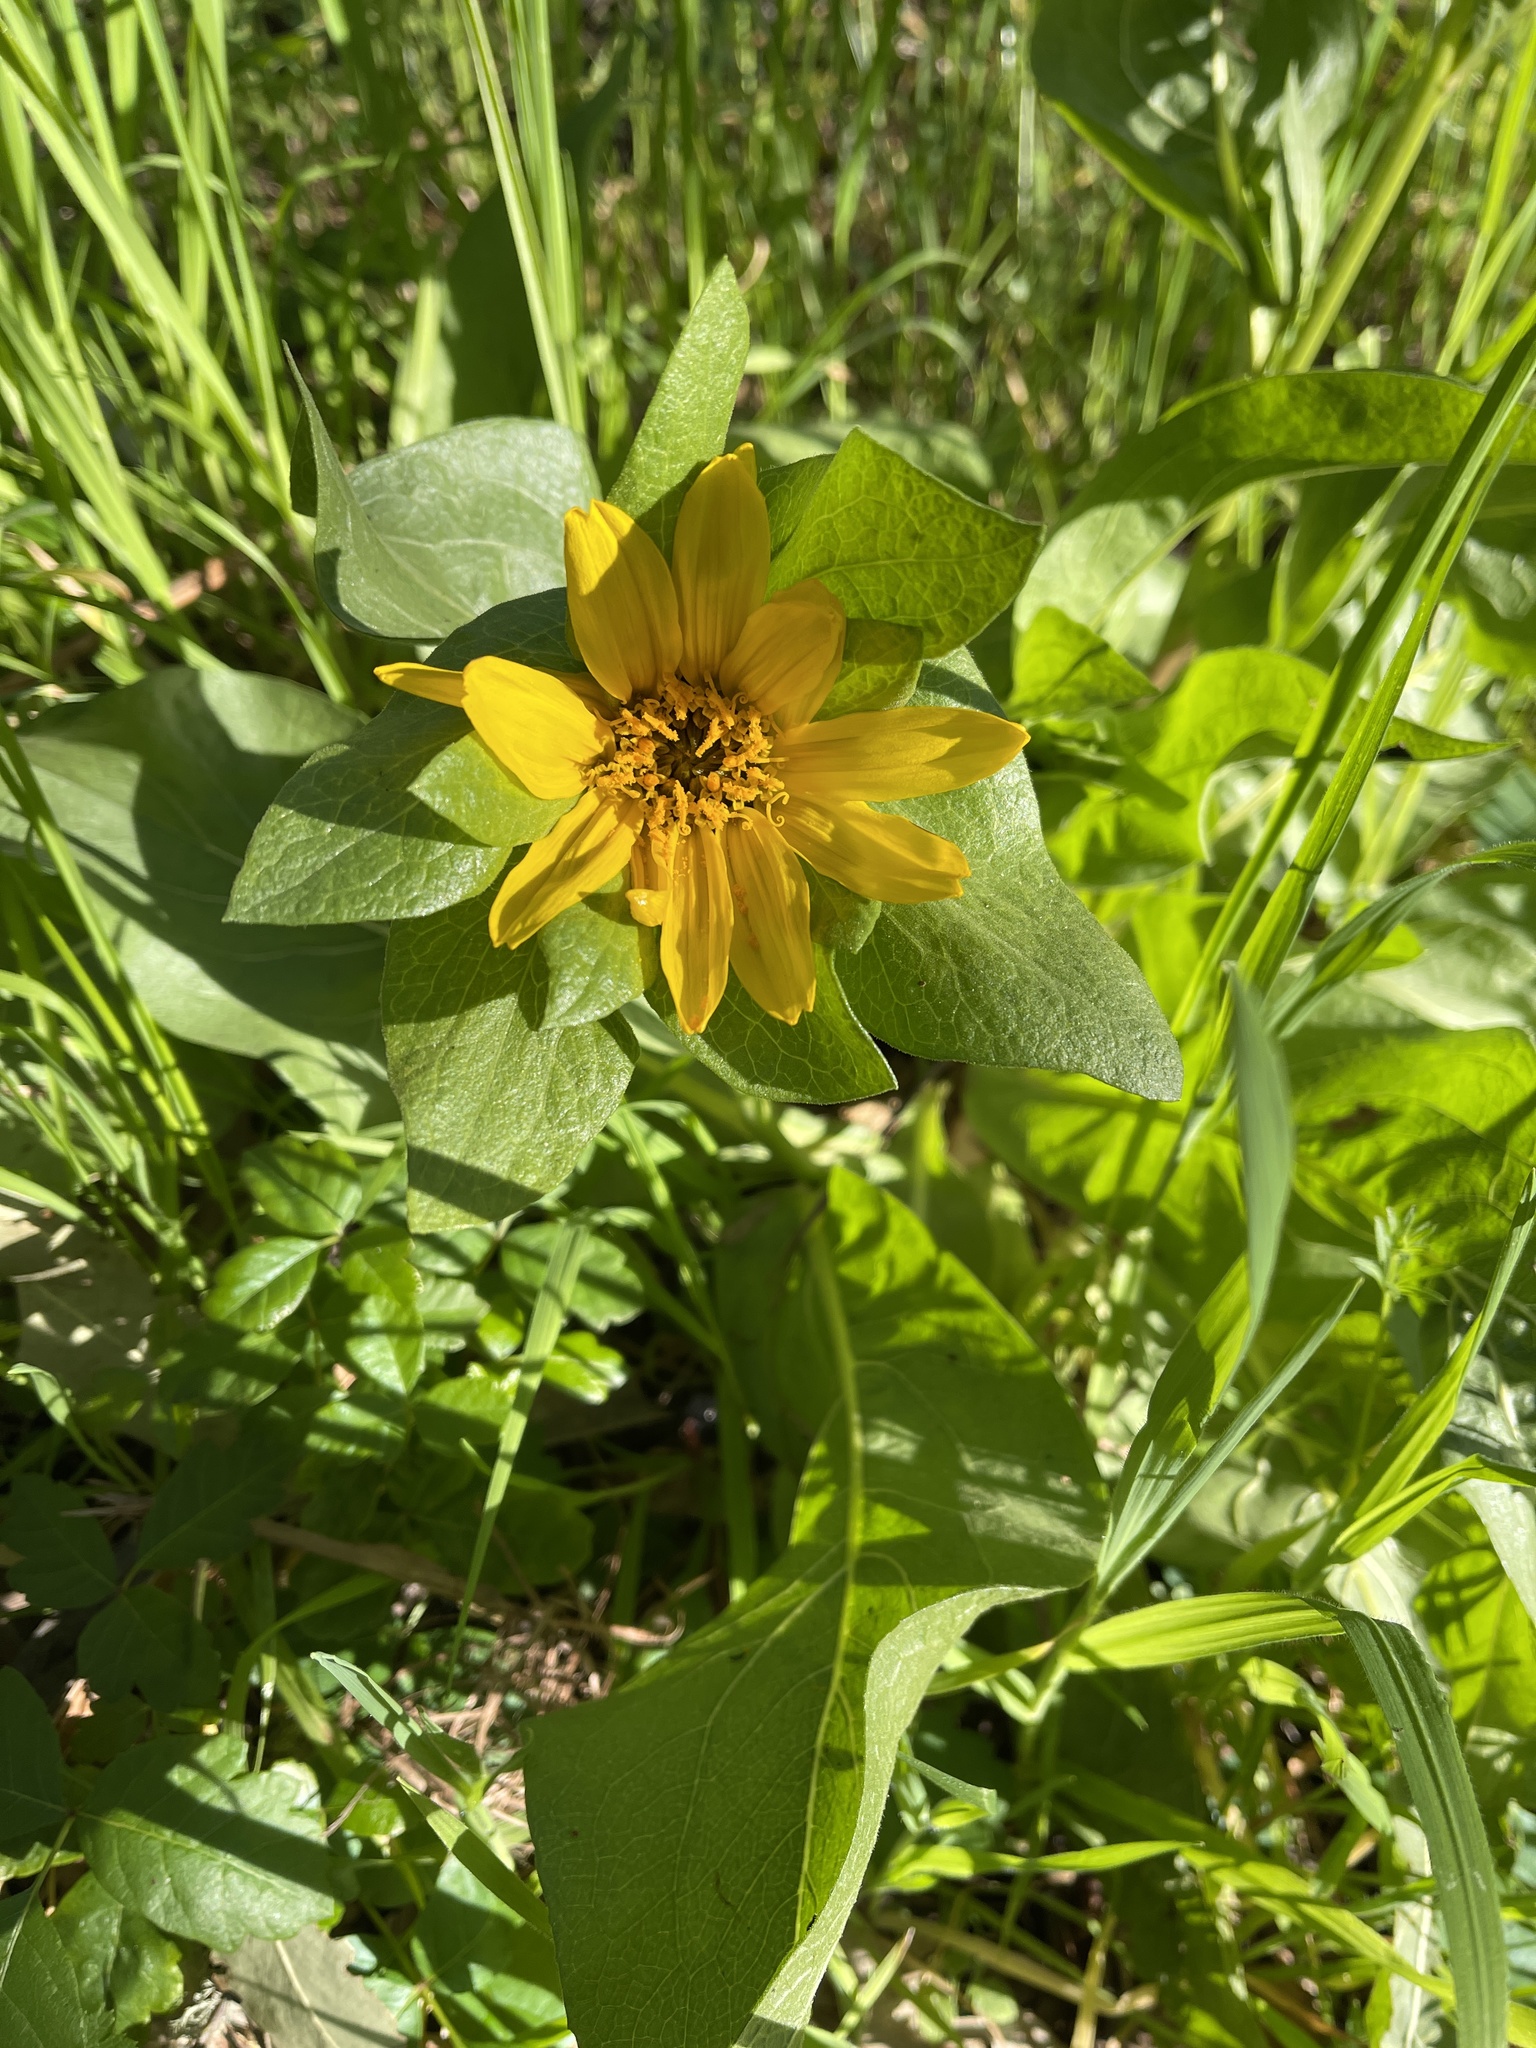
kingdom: Plantae
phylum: Tracheophyta
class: Magnoliopsida
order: Asterales
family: Asteraceae
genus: Wyethia
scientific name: Wyethia glabra
